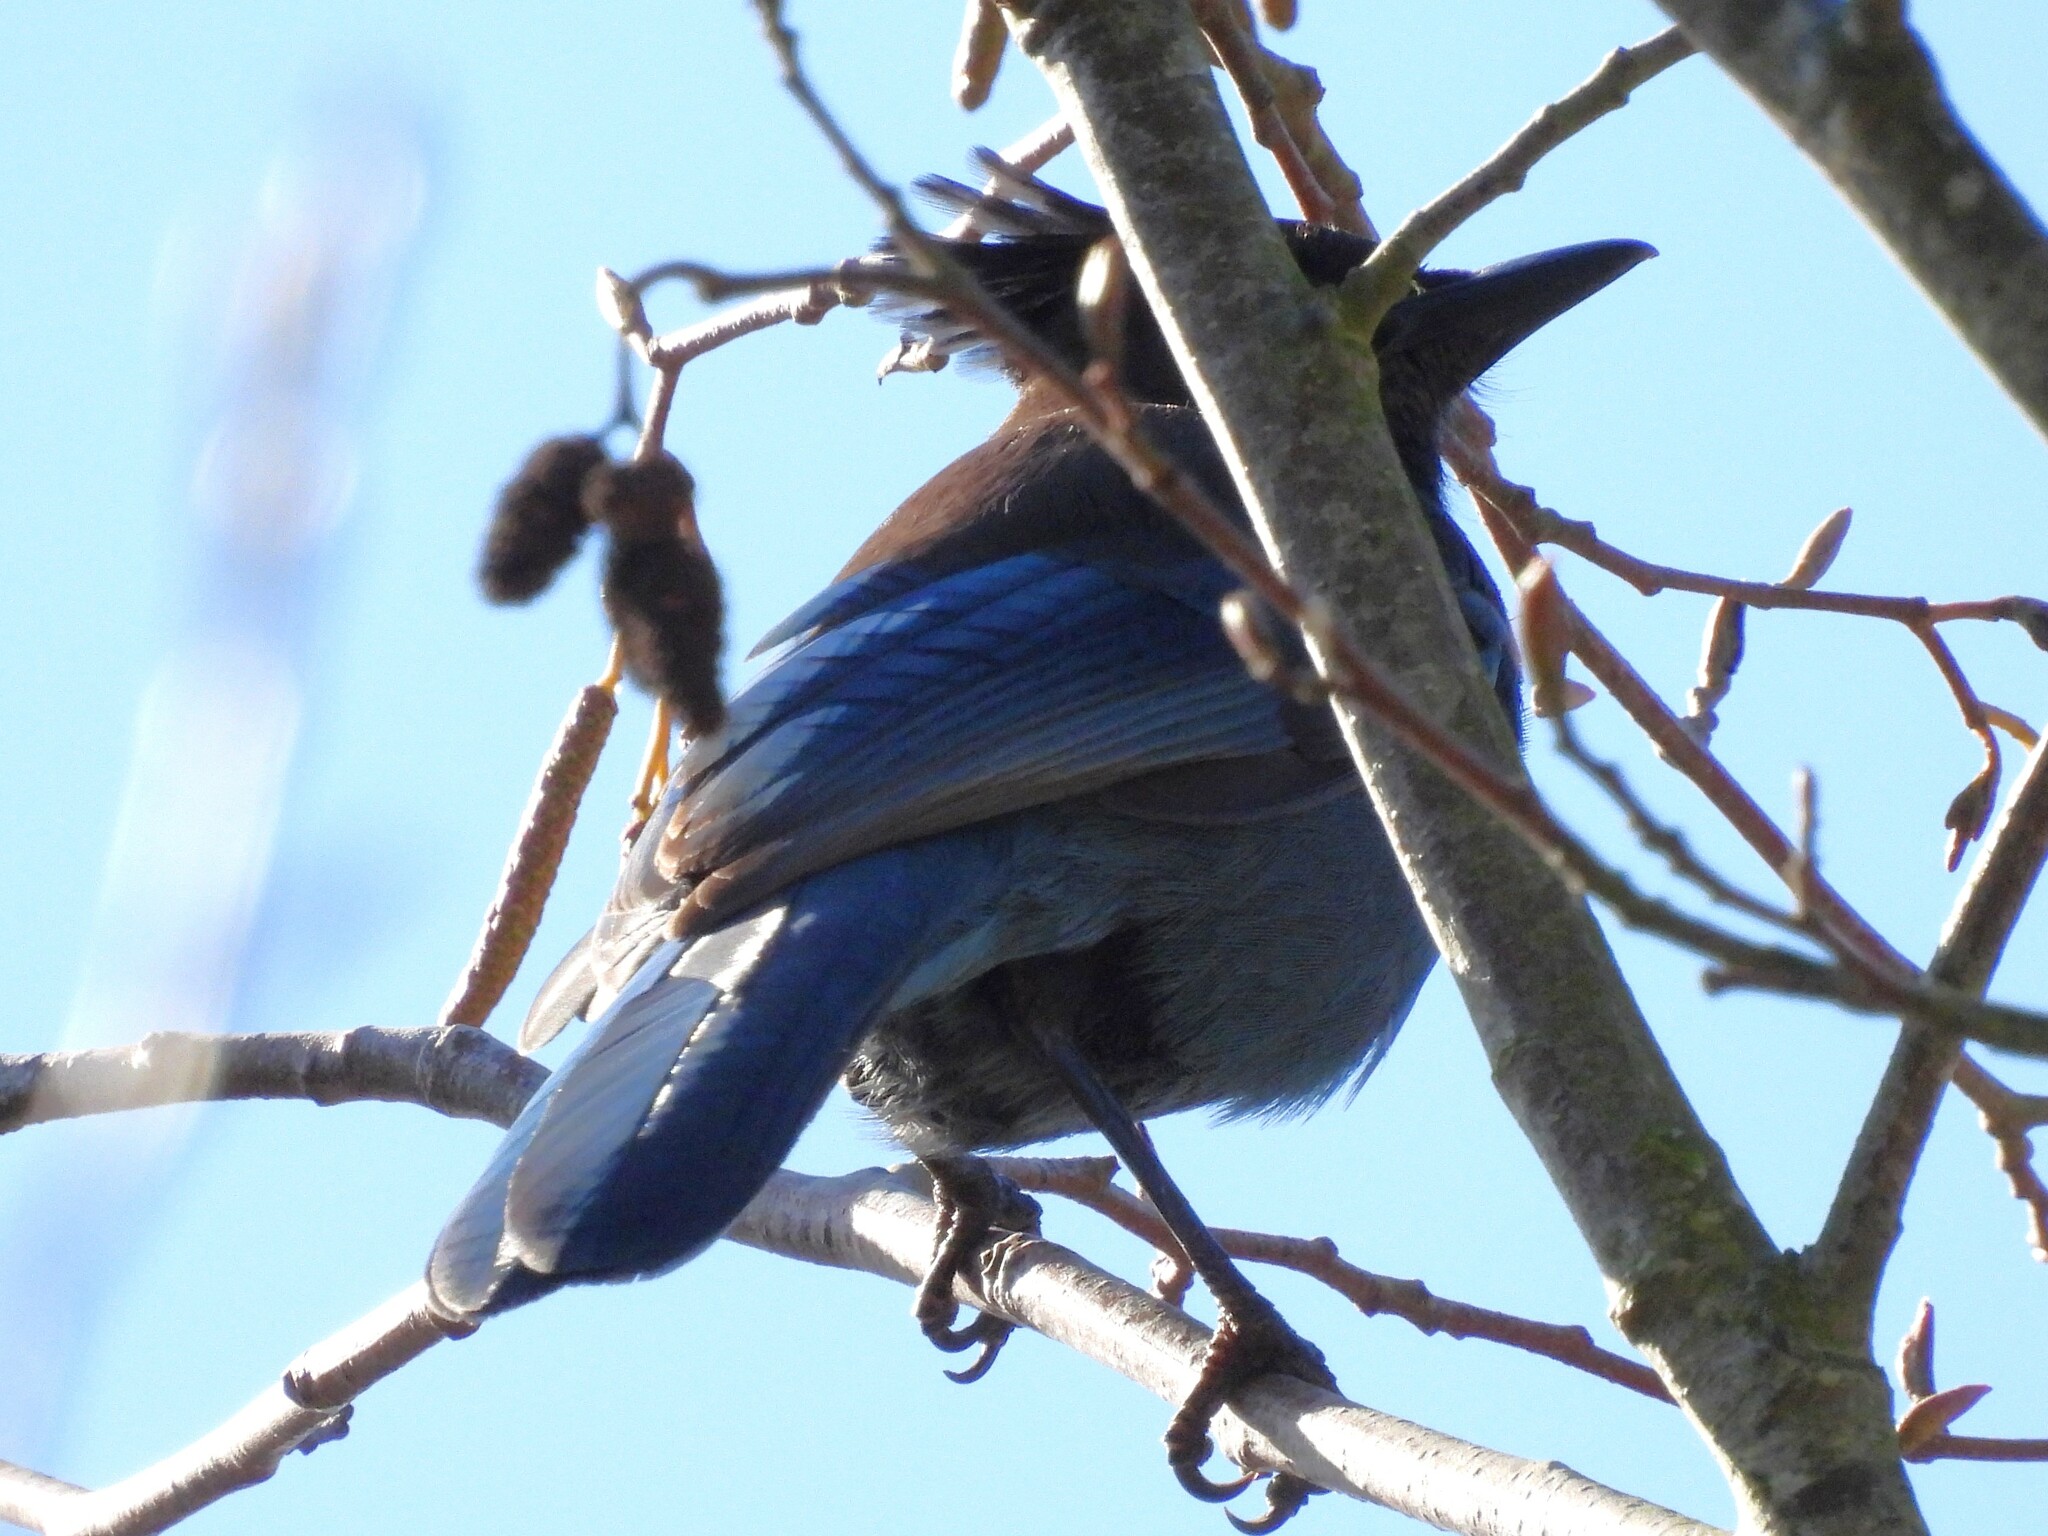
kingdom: Animalia
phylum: Chordata
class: Aves
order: Passeriformes
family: Corvidae
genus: Cyanocitta
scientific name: Cyanocitta stelleri
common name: Steller's jay
